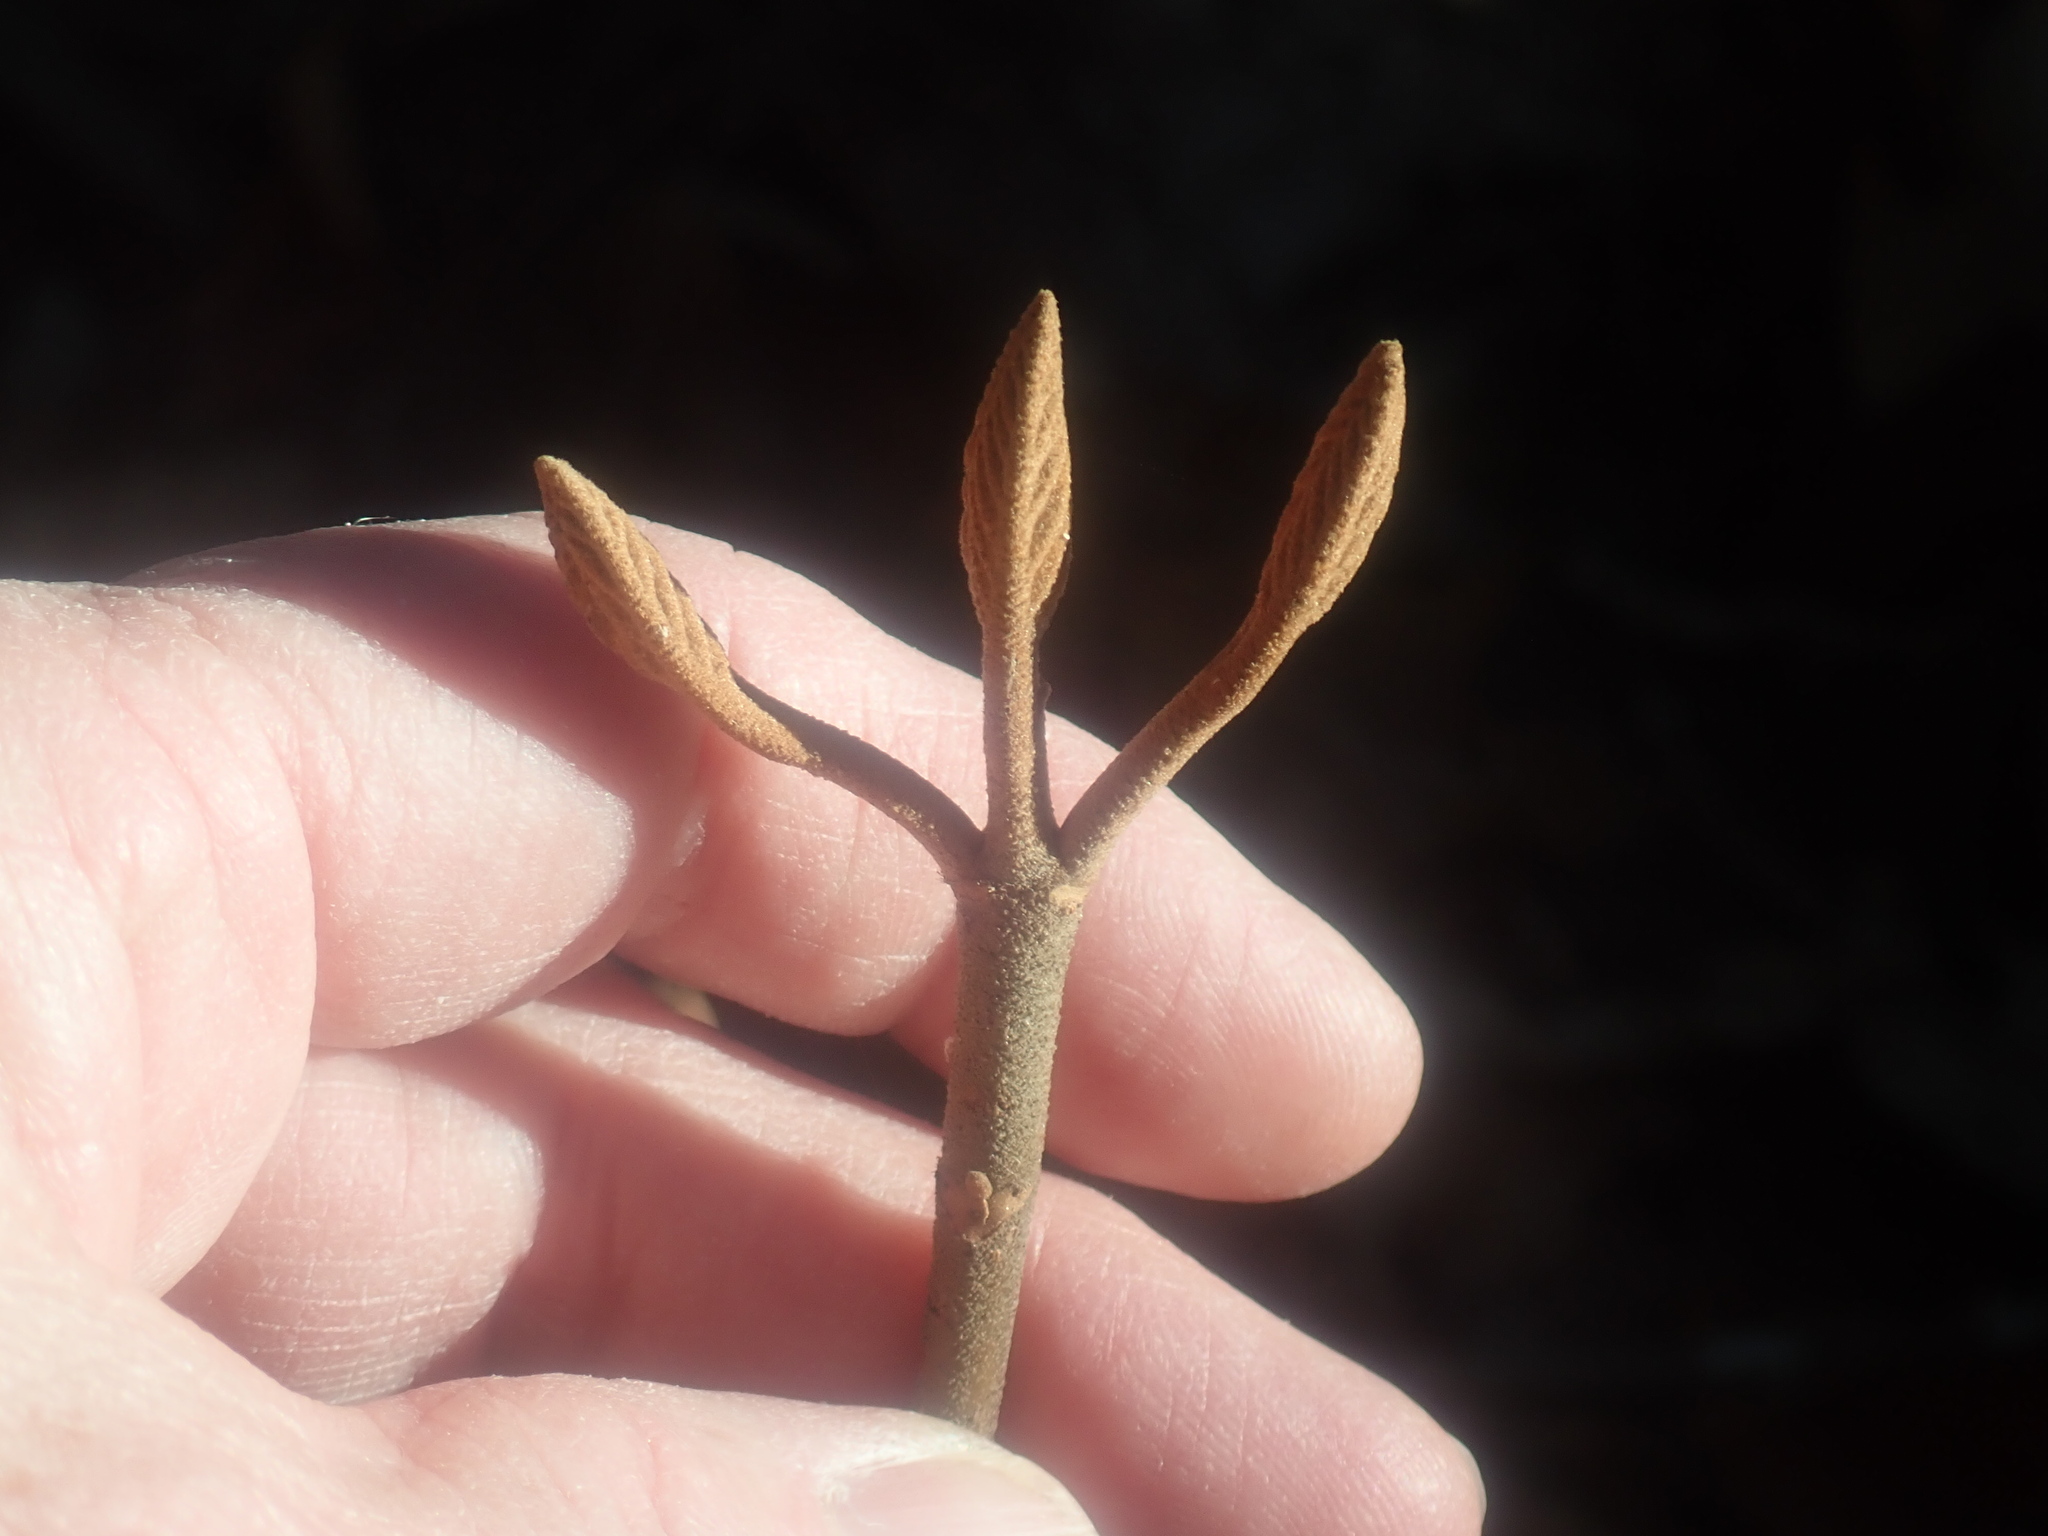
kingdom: Plantae
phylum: Tracheophyta
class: Magnoliopsida
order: Dipsacales
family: Viburnaceae
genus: Viburnum
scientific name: Viburnum lantanoides
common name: Hobblebush
